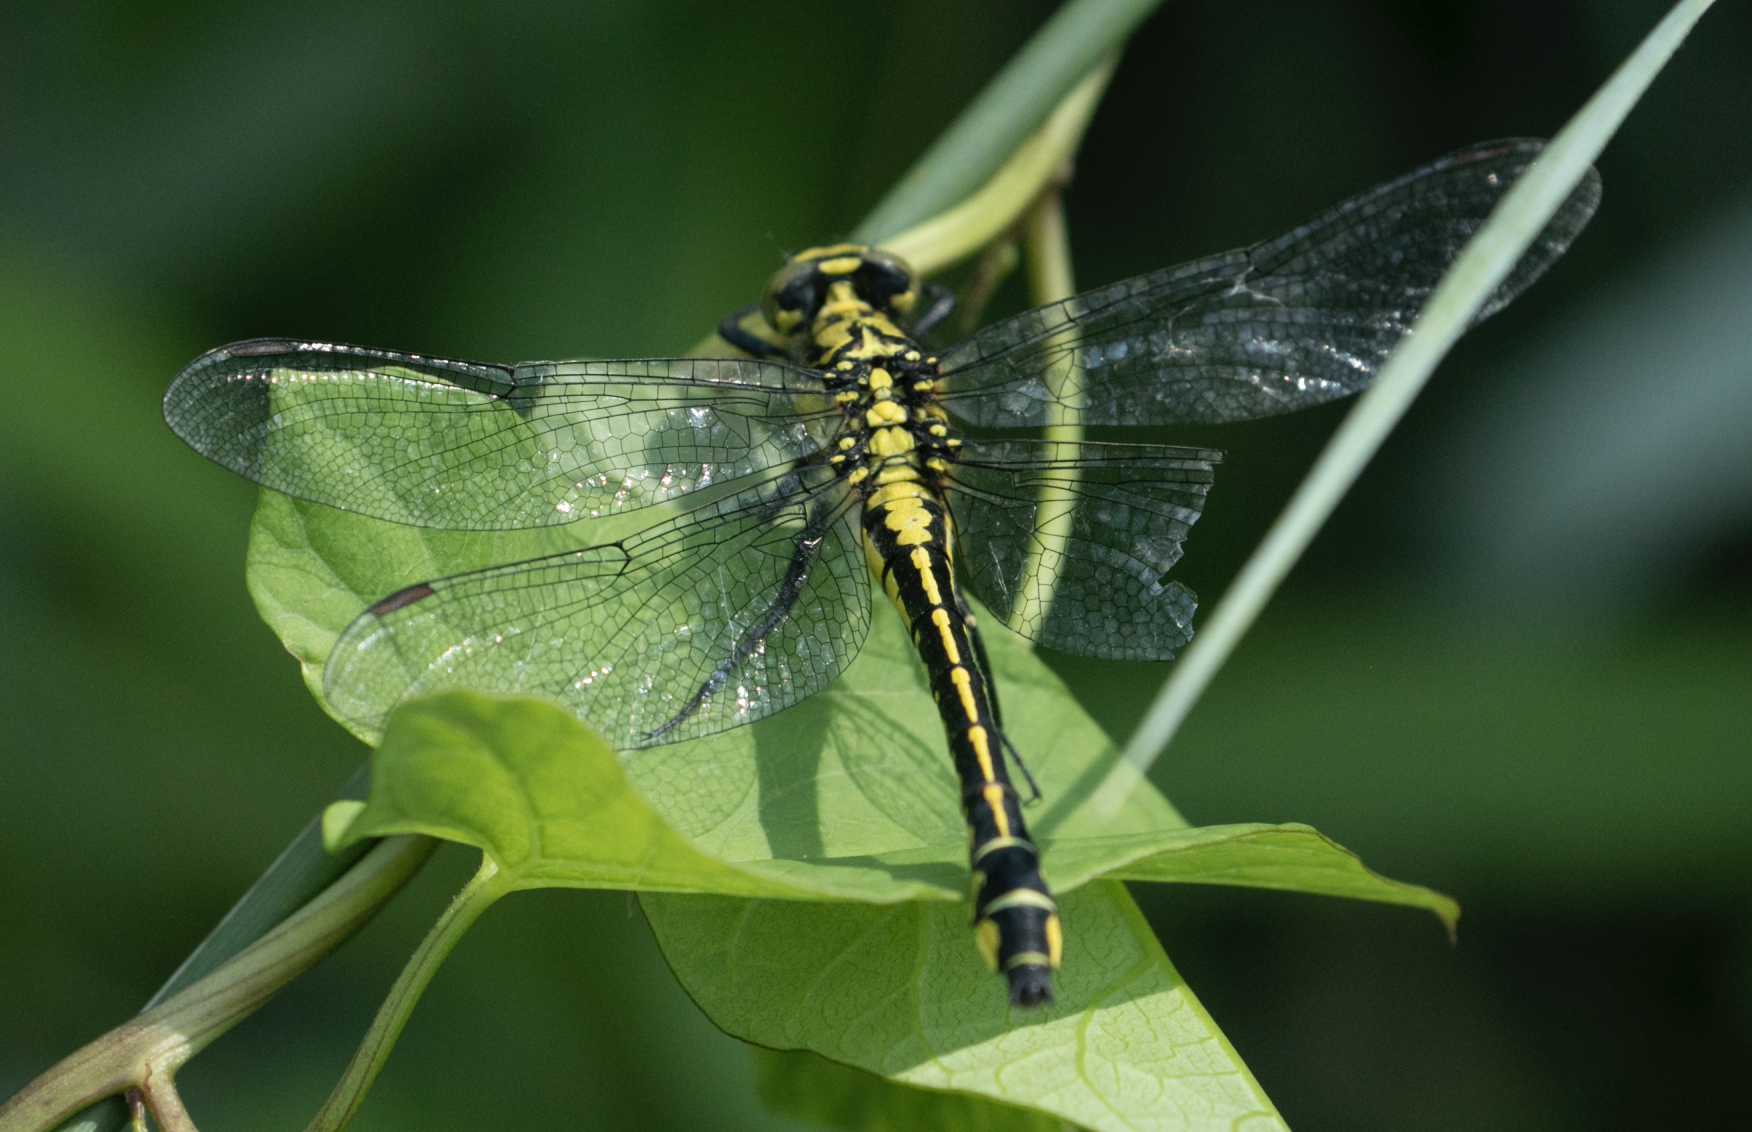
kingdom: Animalia
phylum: Arthropoda
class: Insecta
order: Odonata
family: Gomphidae
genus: Gomphus
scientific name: Gomphus vulgatissimus
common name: Club-tailed dragonfly
